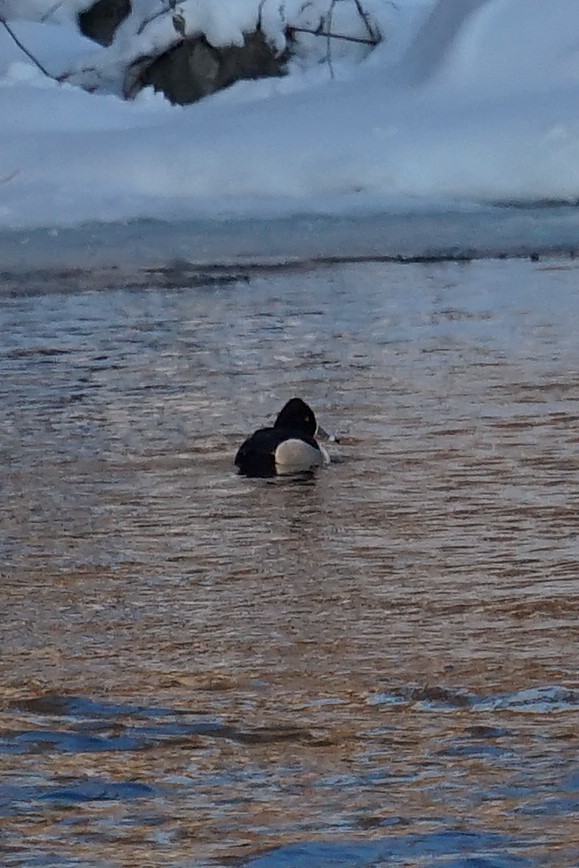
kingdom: Animalia
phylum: Chordata
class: Aves
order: Anseriformes
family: Anatidae
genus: Aythya
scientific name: Aythya collaris
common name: Ring-necked duck
